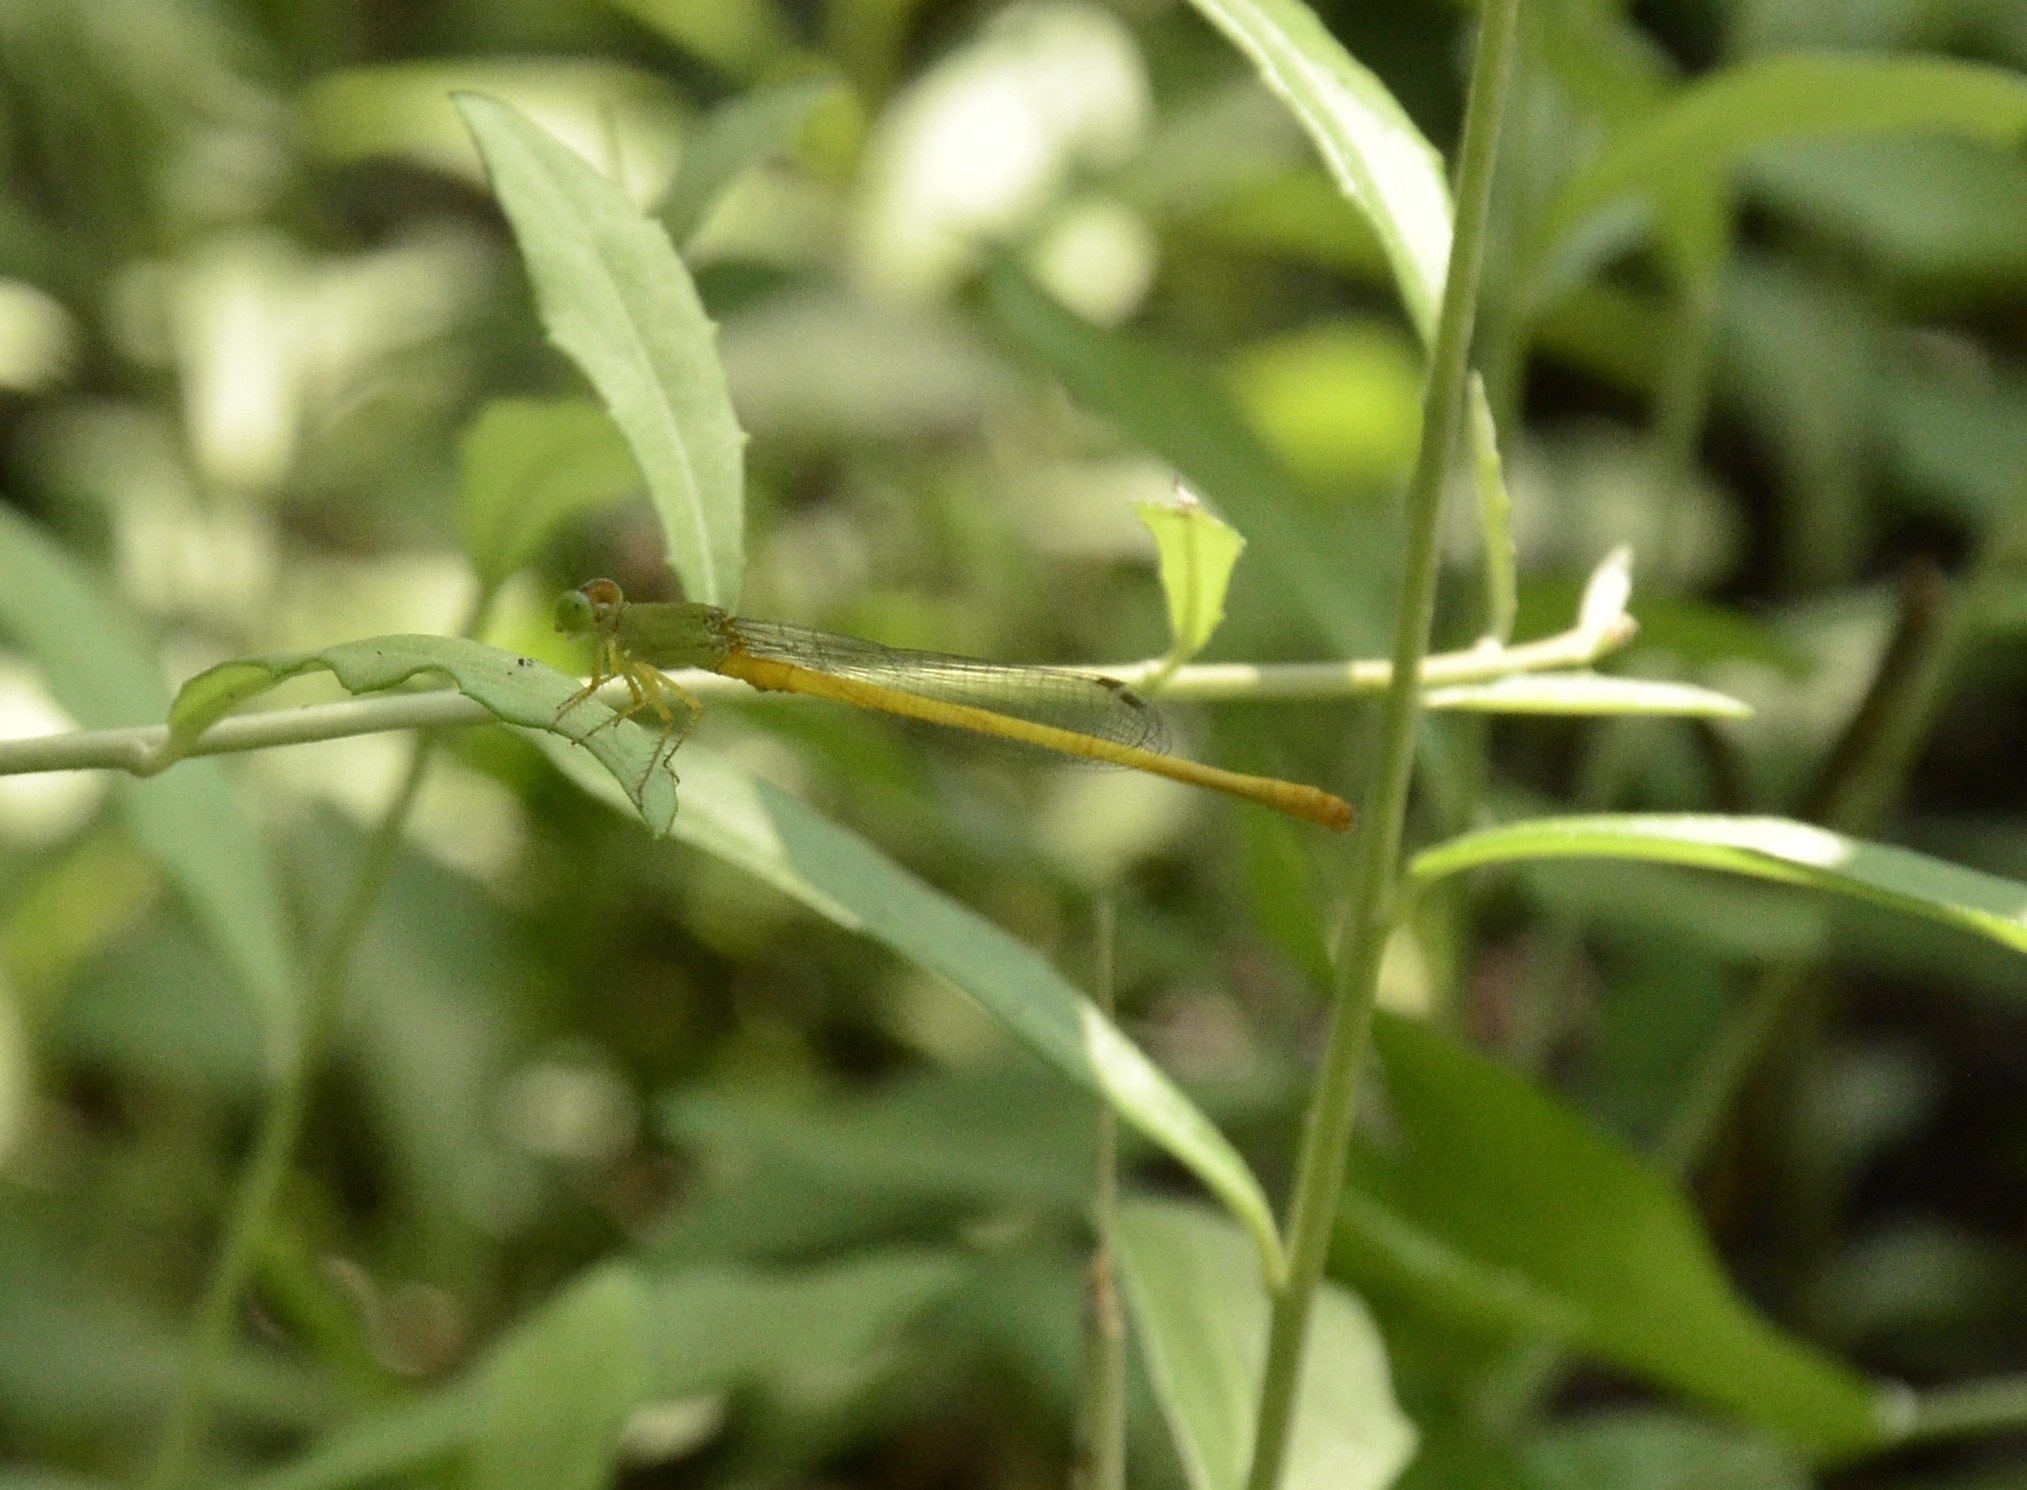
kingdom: Animalia
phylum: Arthropoda
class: Insecta
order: Odonata
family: Coenagrionidae
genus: Ceriagrion
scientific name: Ceriagrion coromandelianum
